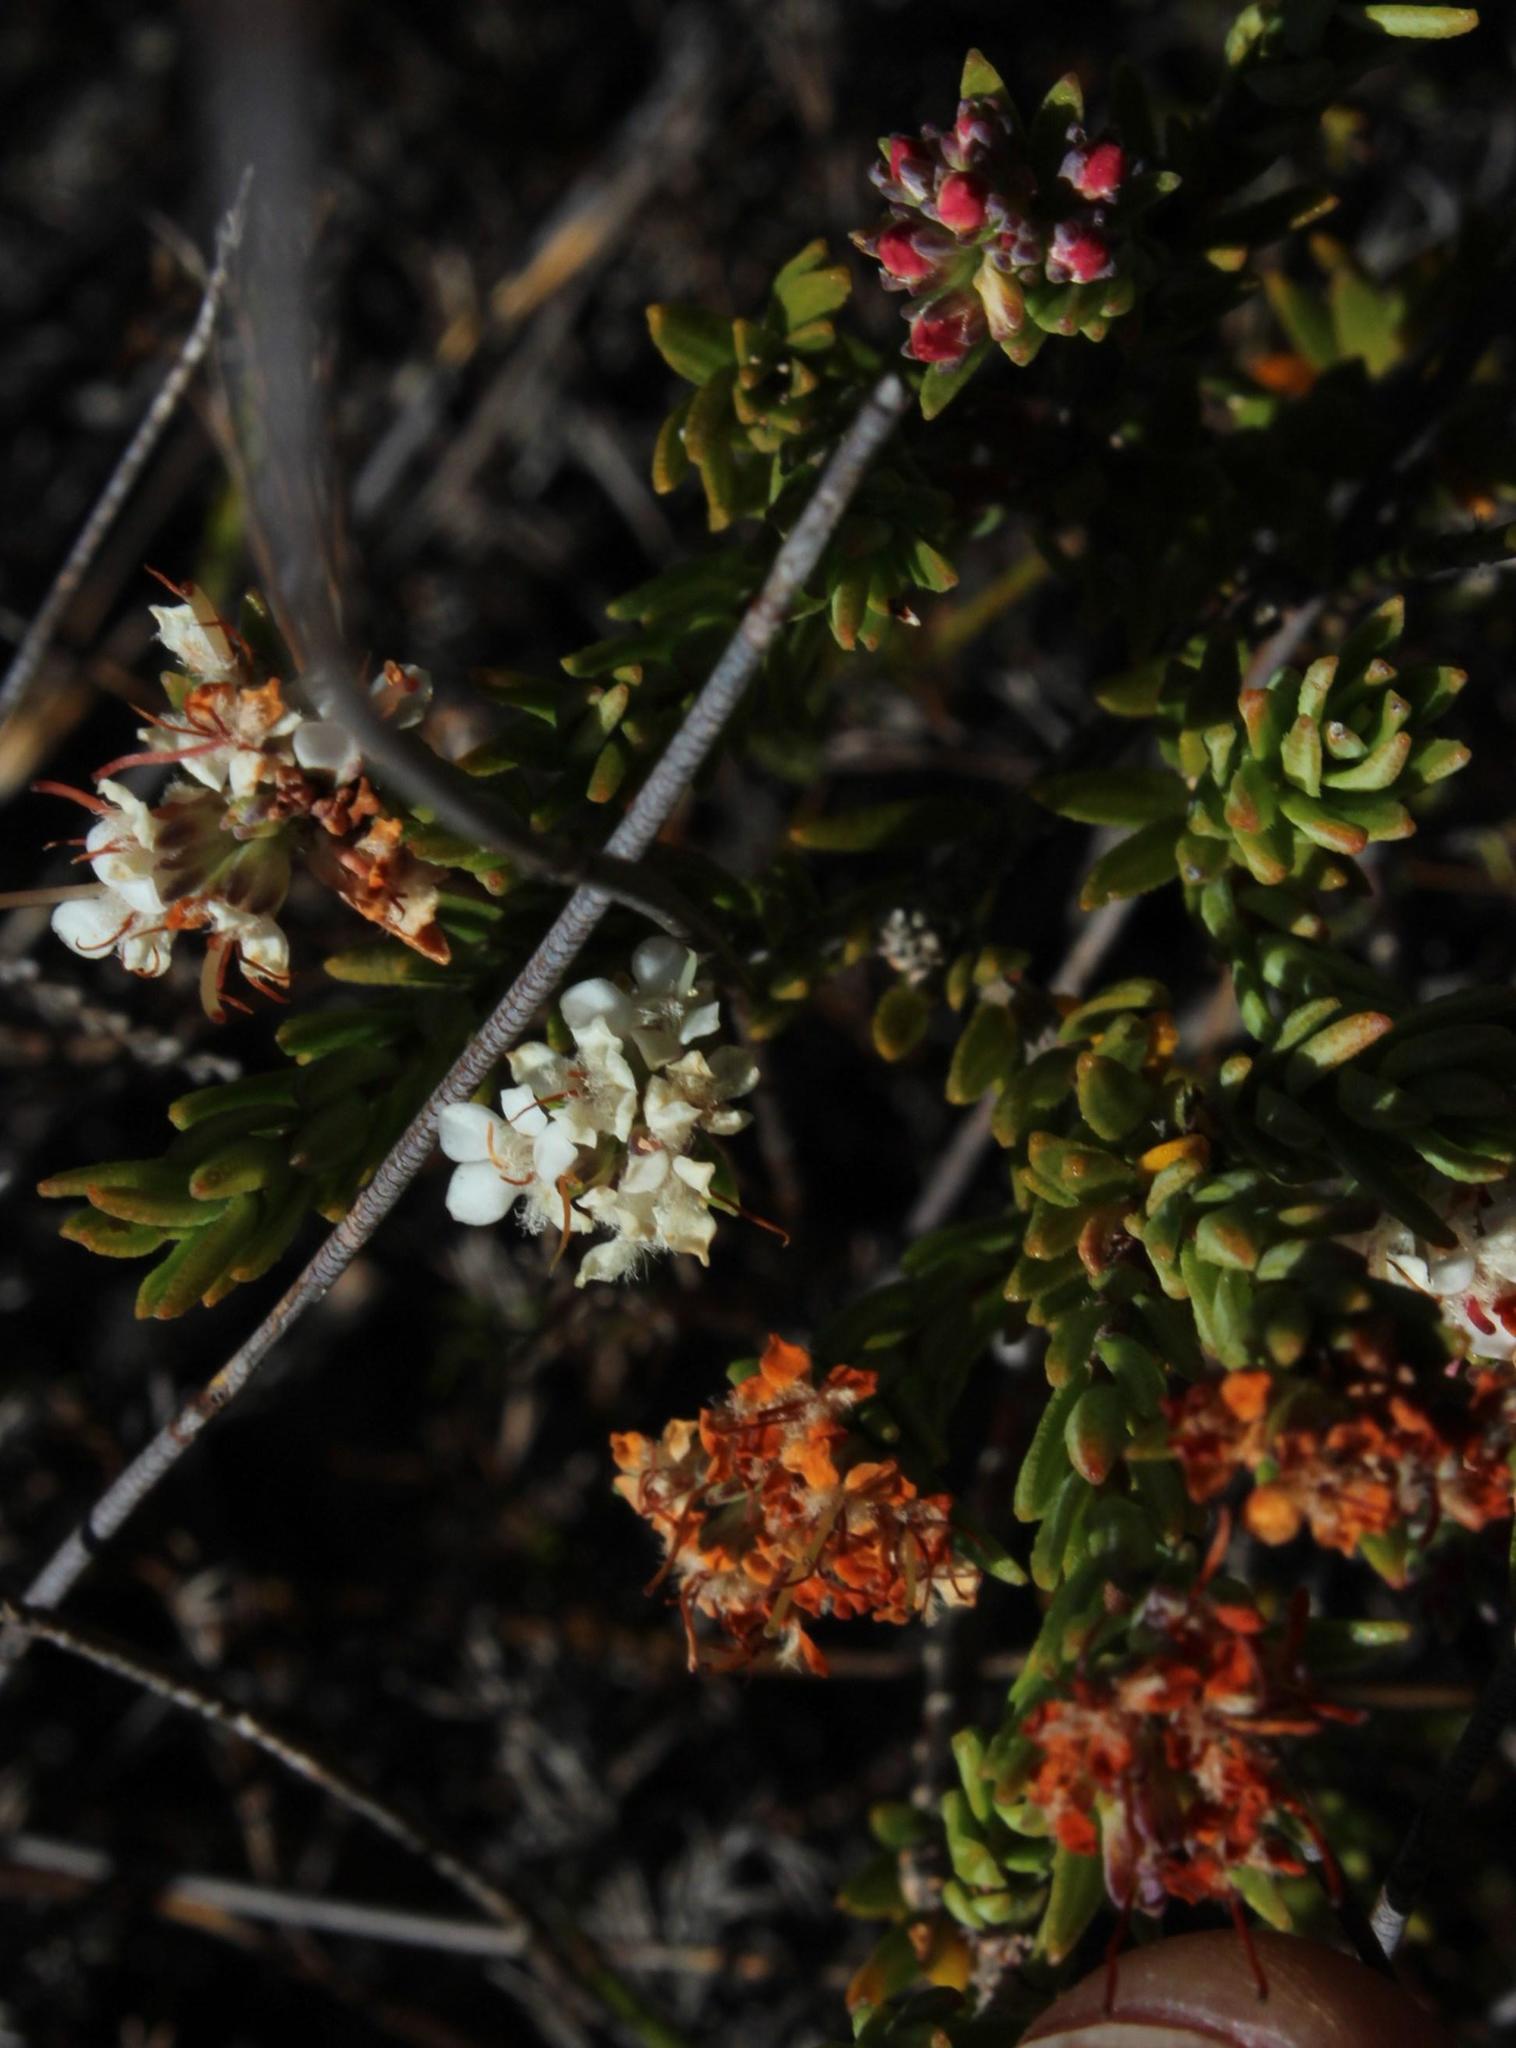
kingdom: Plantae
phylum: Tracheophyta
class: Magnoliopsida
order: Sapindales
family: Rutaceae
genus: Macrostylis
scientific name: Macrostylis villosa
